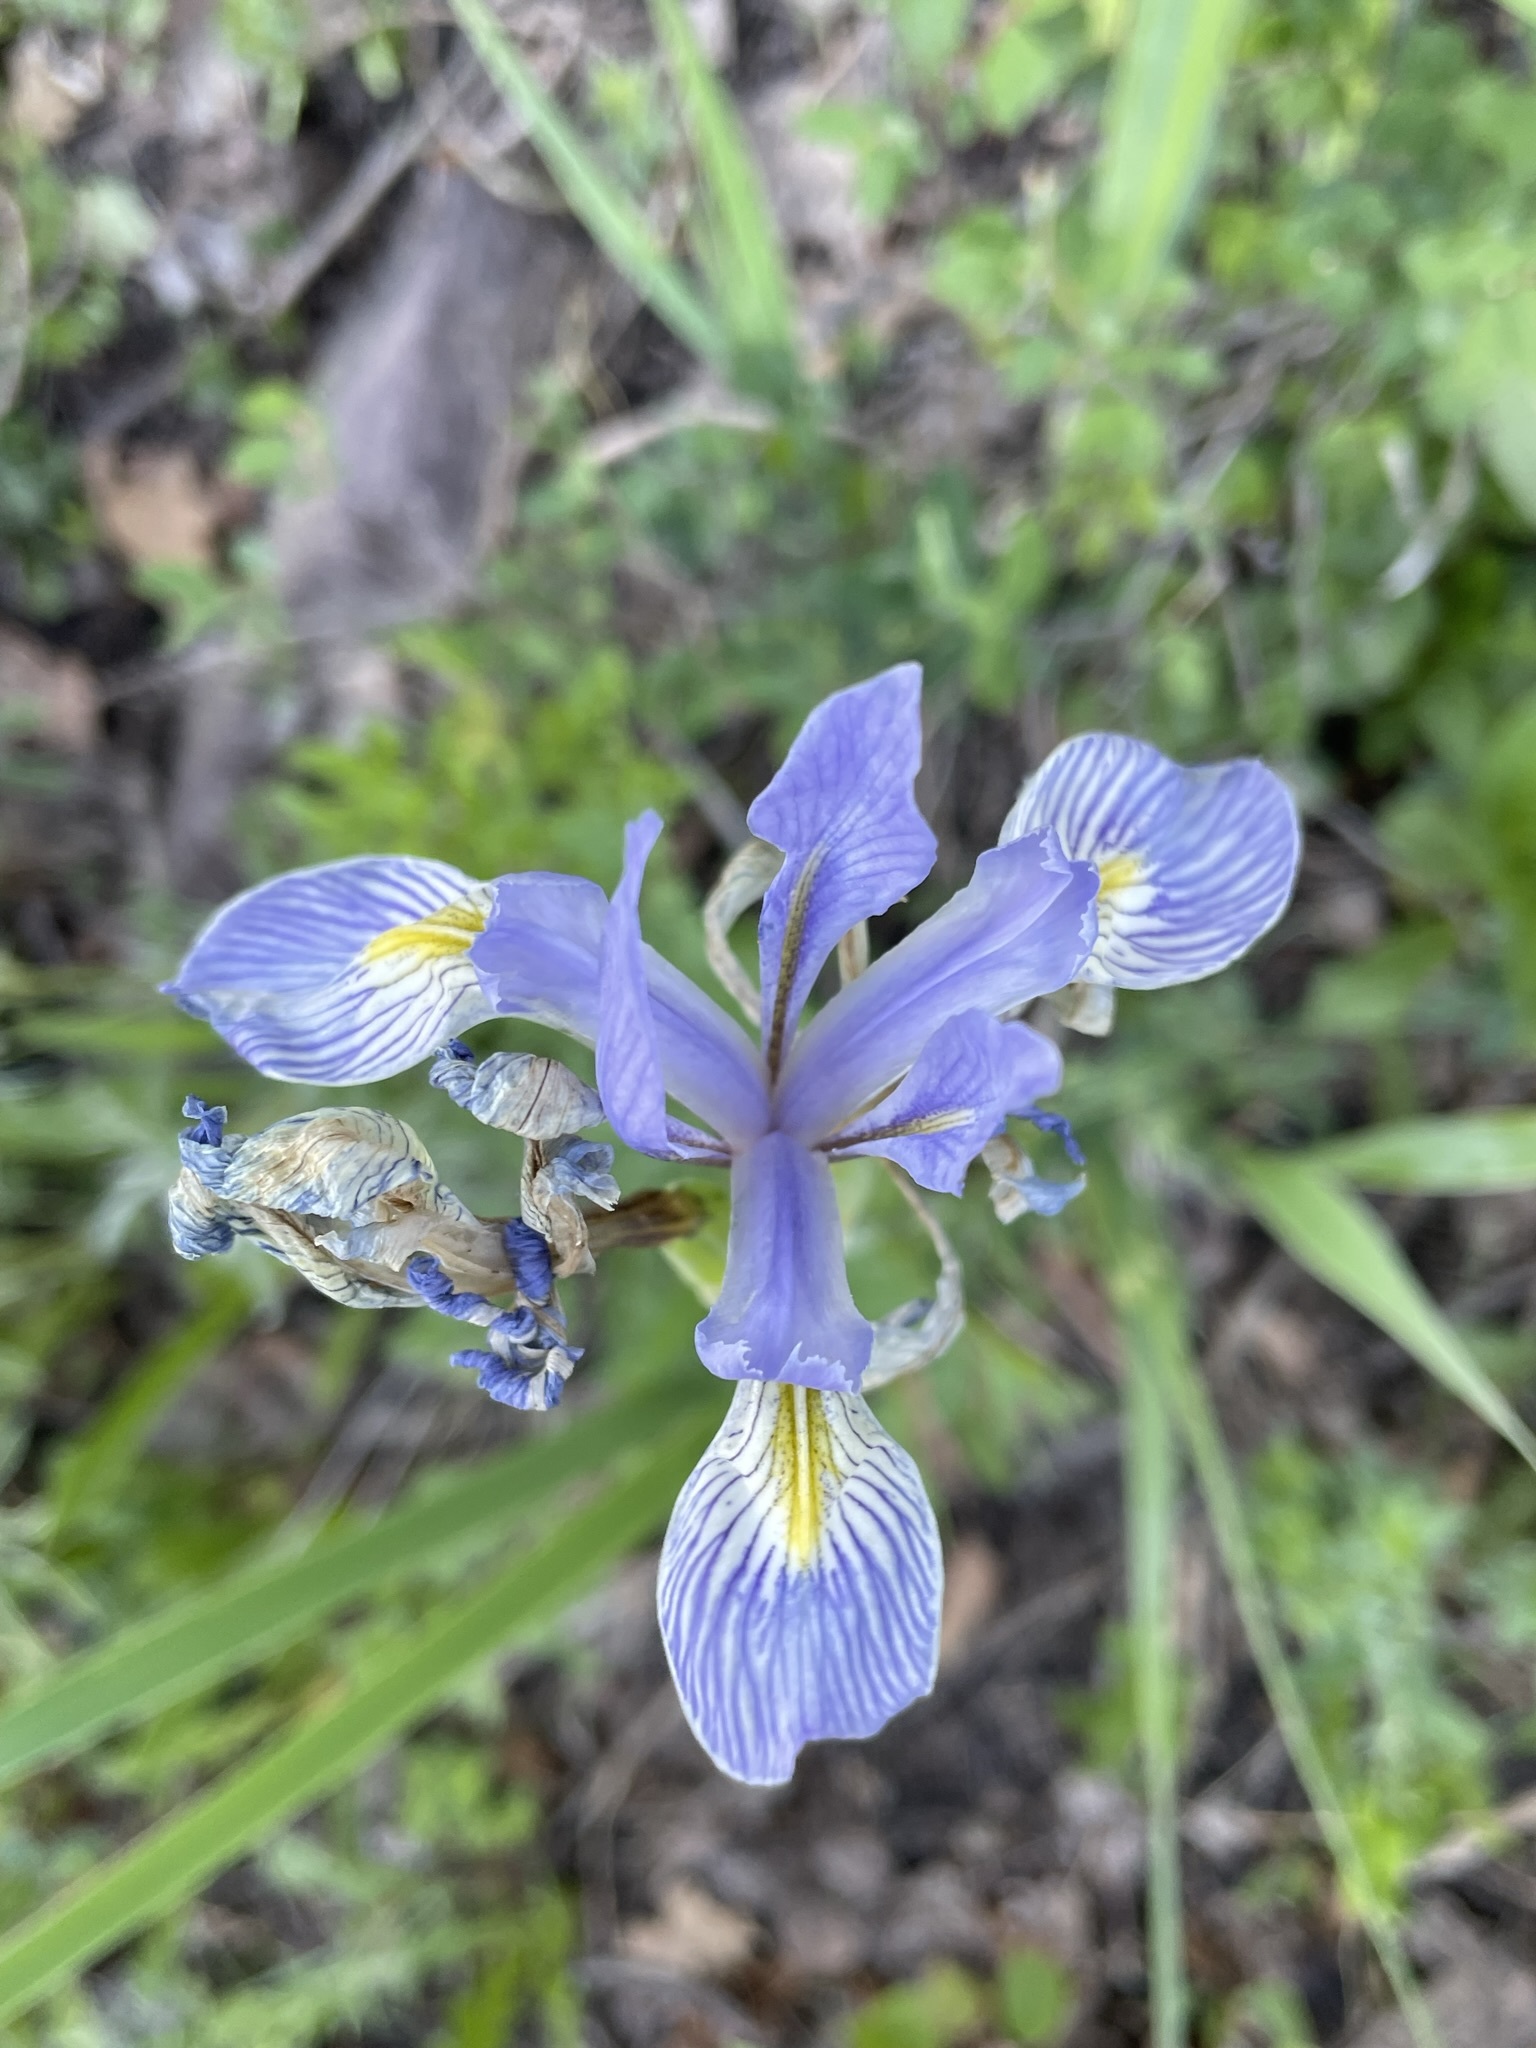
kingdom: Plantae
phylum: Tracheophyta
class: Liliopsida
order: Asparagales
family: Iridaceae
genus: Iris
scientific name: Iris missouriensis
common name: Rocky mountain iris
